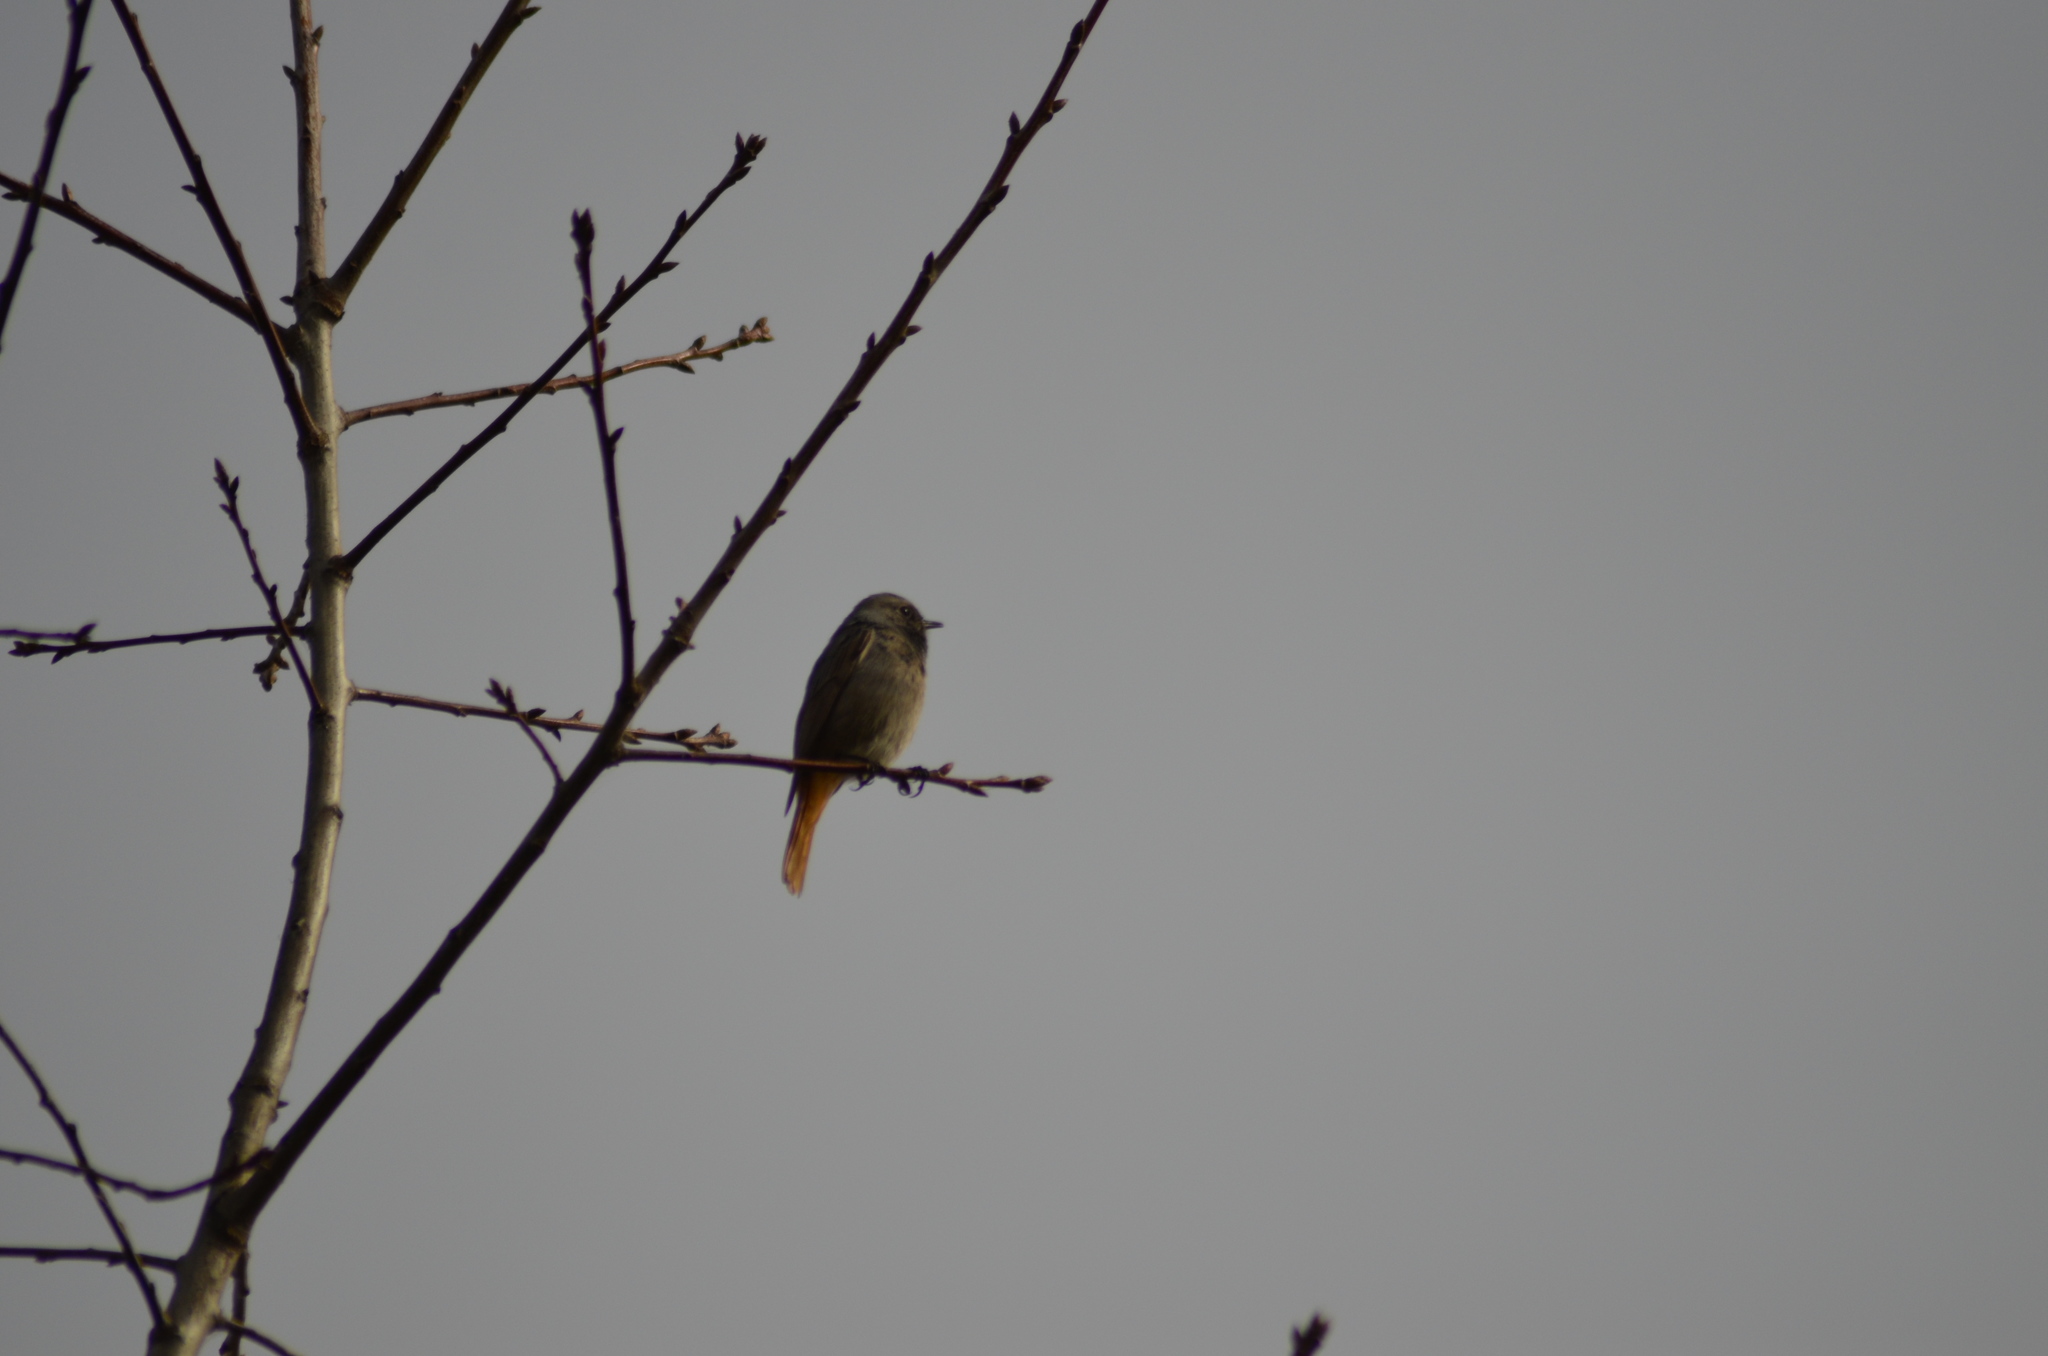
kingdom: Animalia
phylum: Chordata
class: Aves
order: Passeriformes
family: Muscicapidae
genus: Phoenicurus
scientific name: Phoenicurus ochruros
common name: Black redstart
